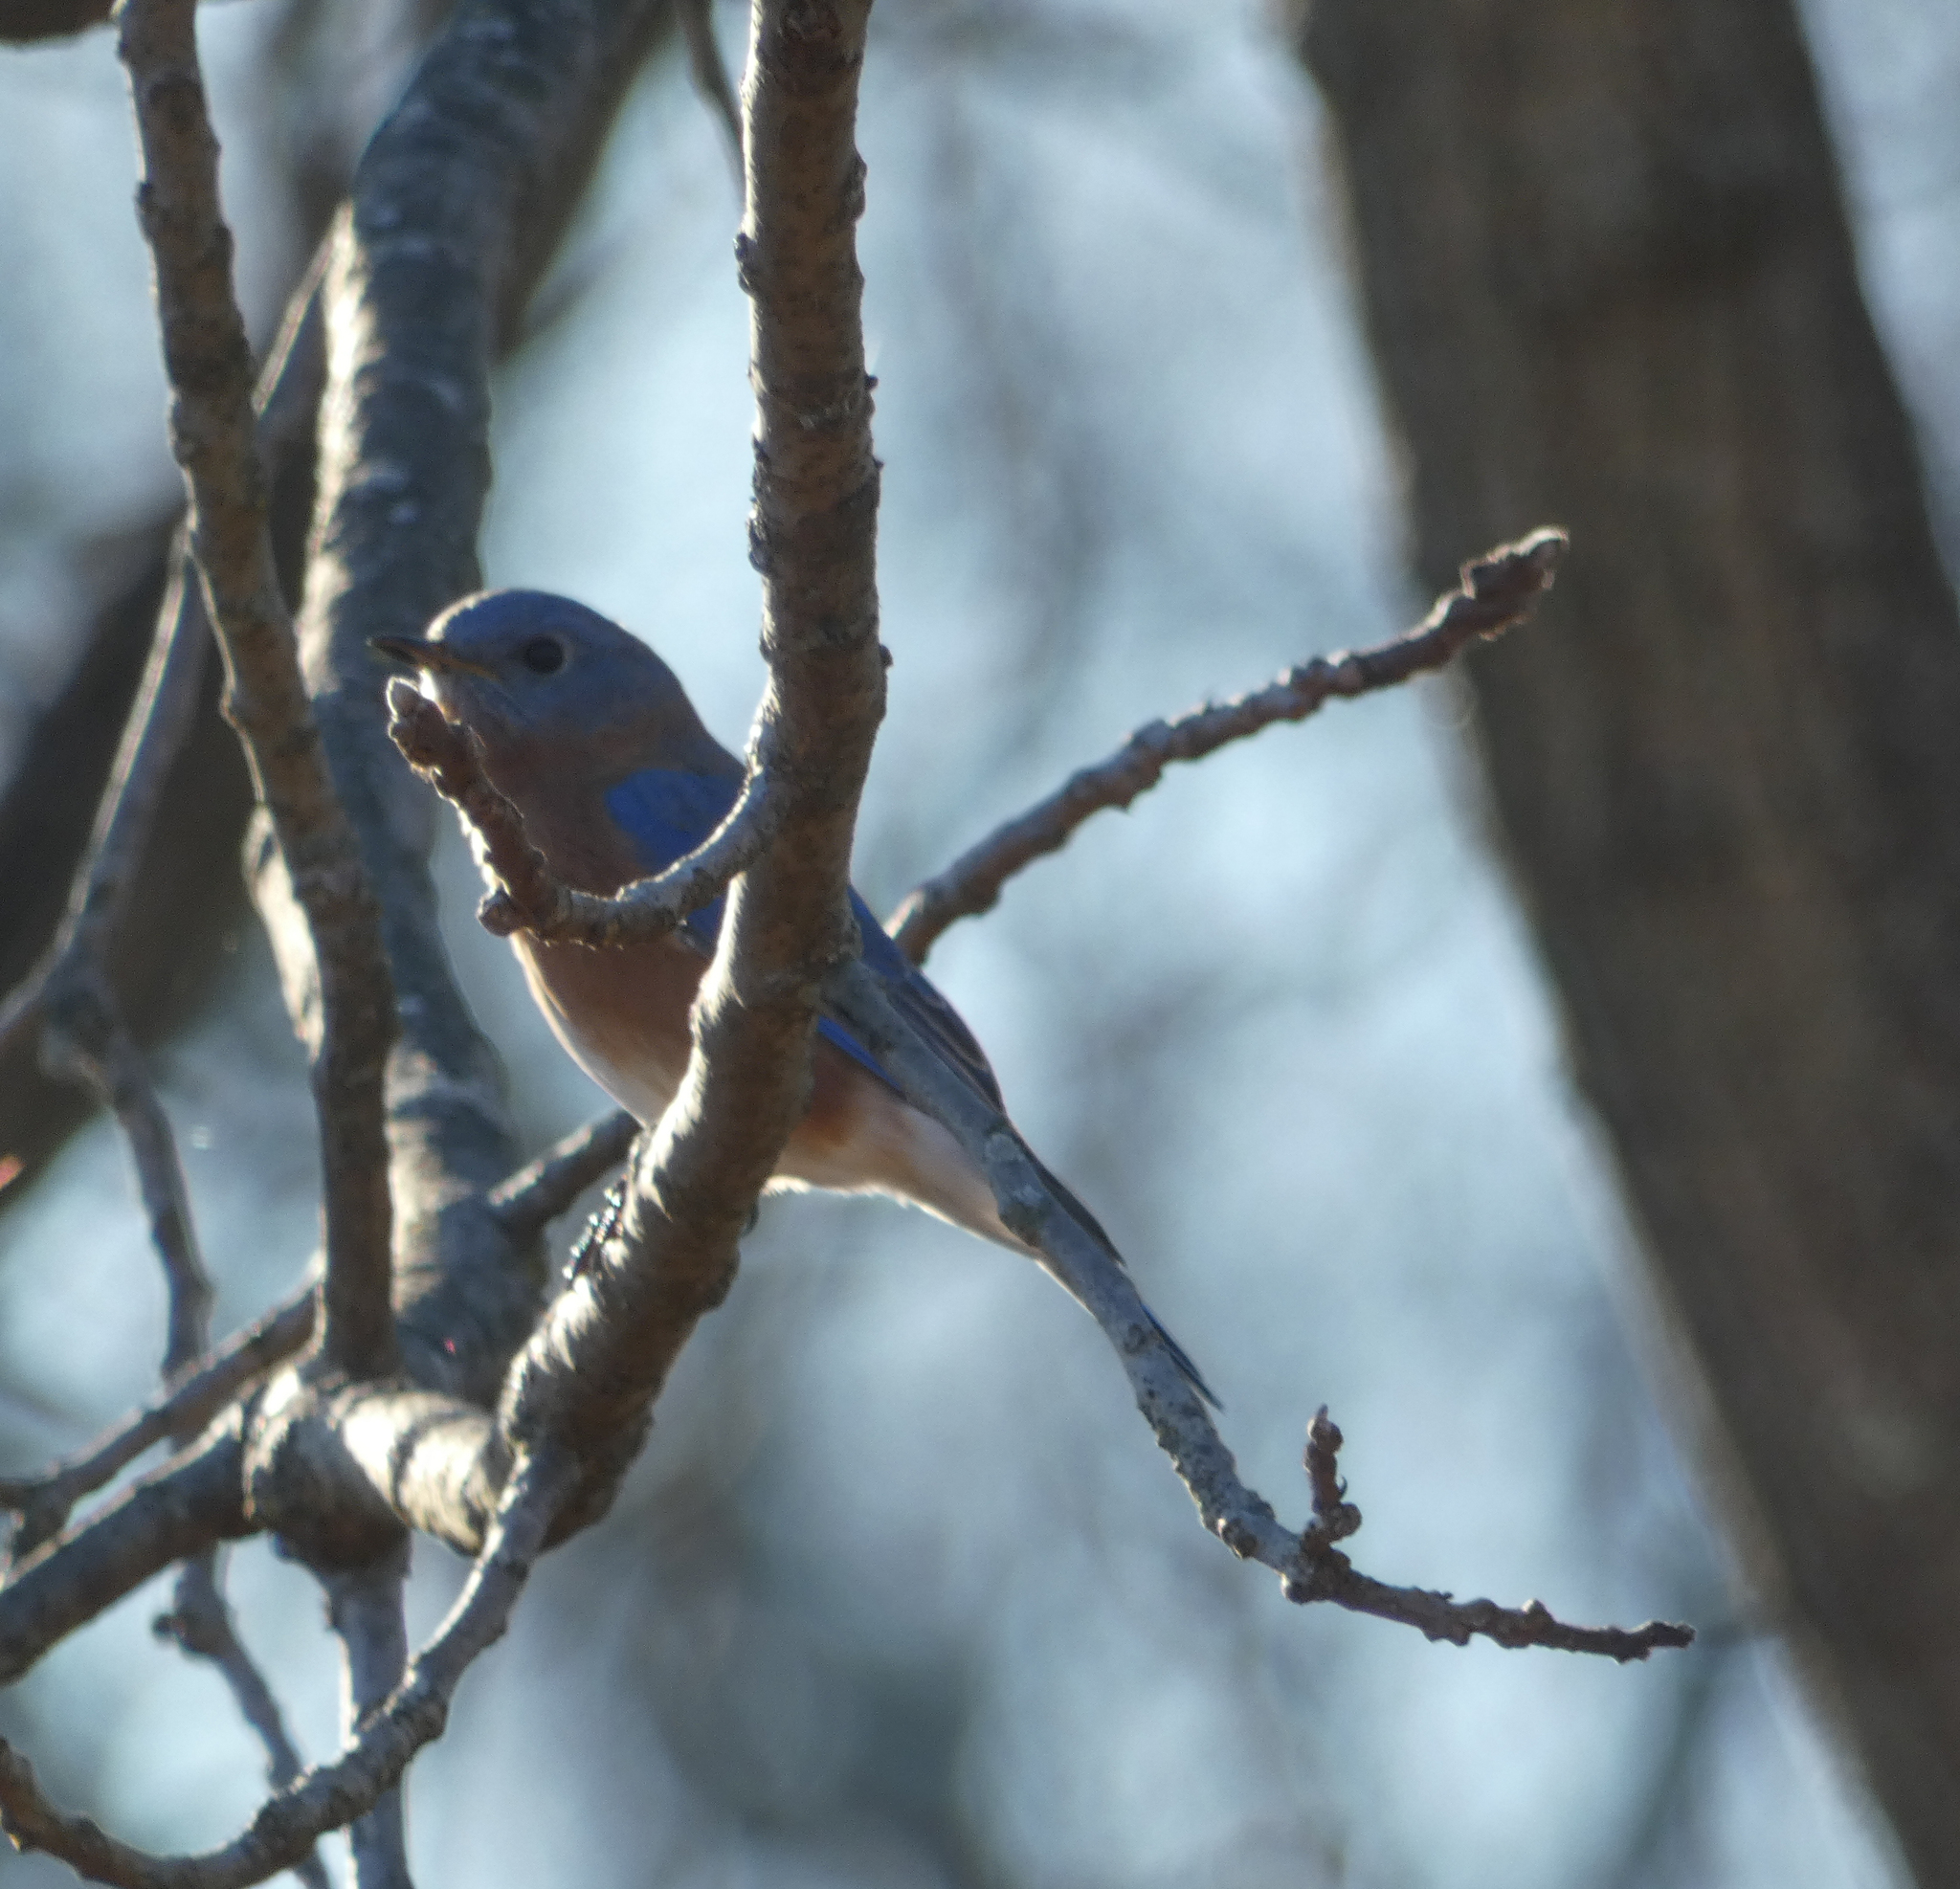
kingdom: Animalia
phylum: Chordata
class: Aves
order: Passeriformes
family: Turdidae
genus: Sialia
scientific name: Sialia sialis
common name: Eastern bluebird
